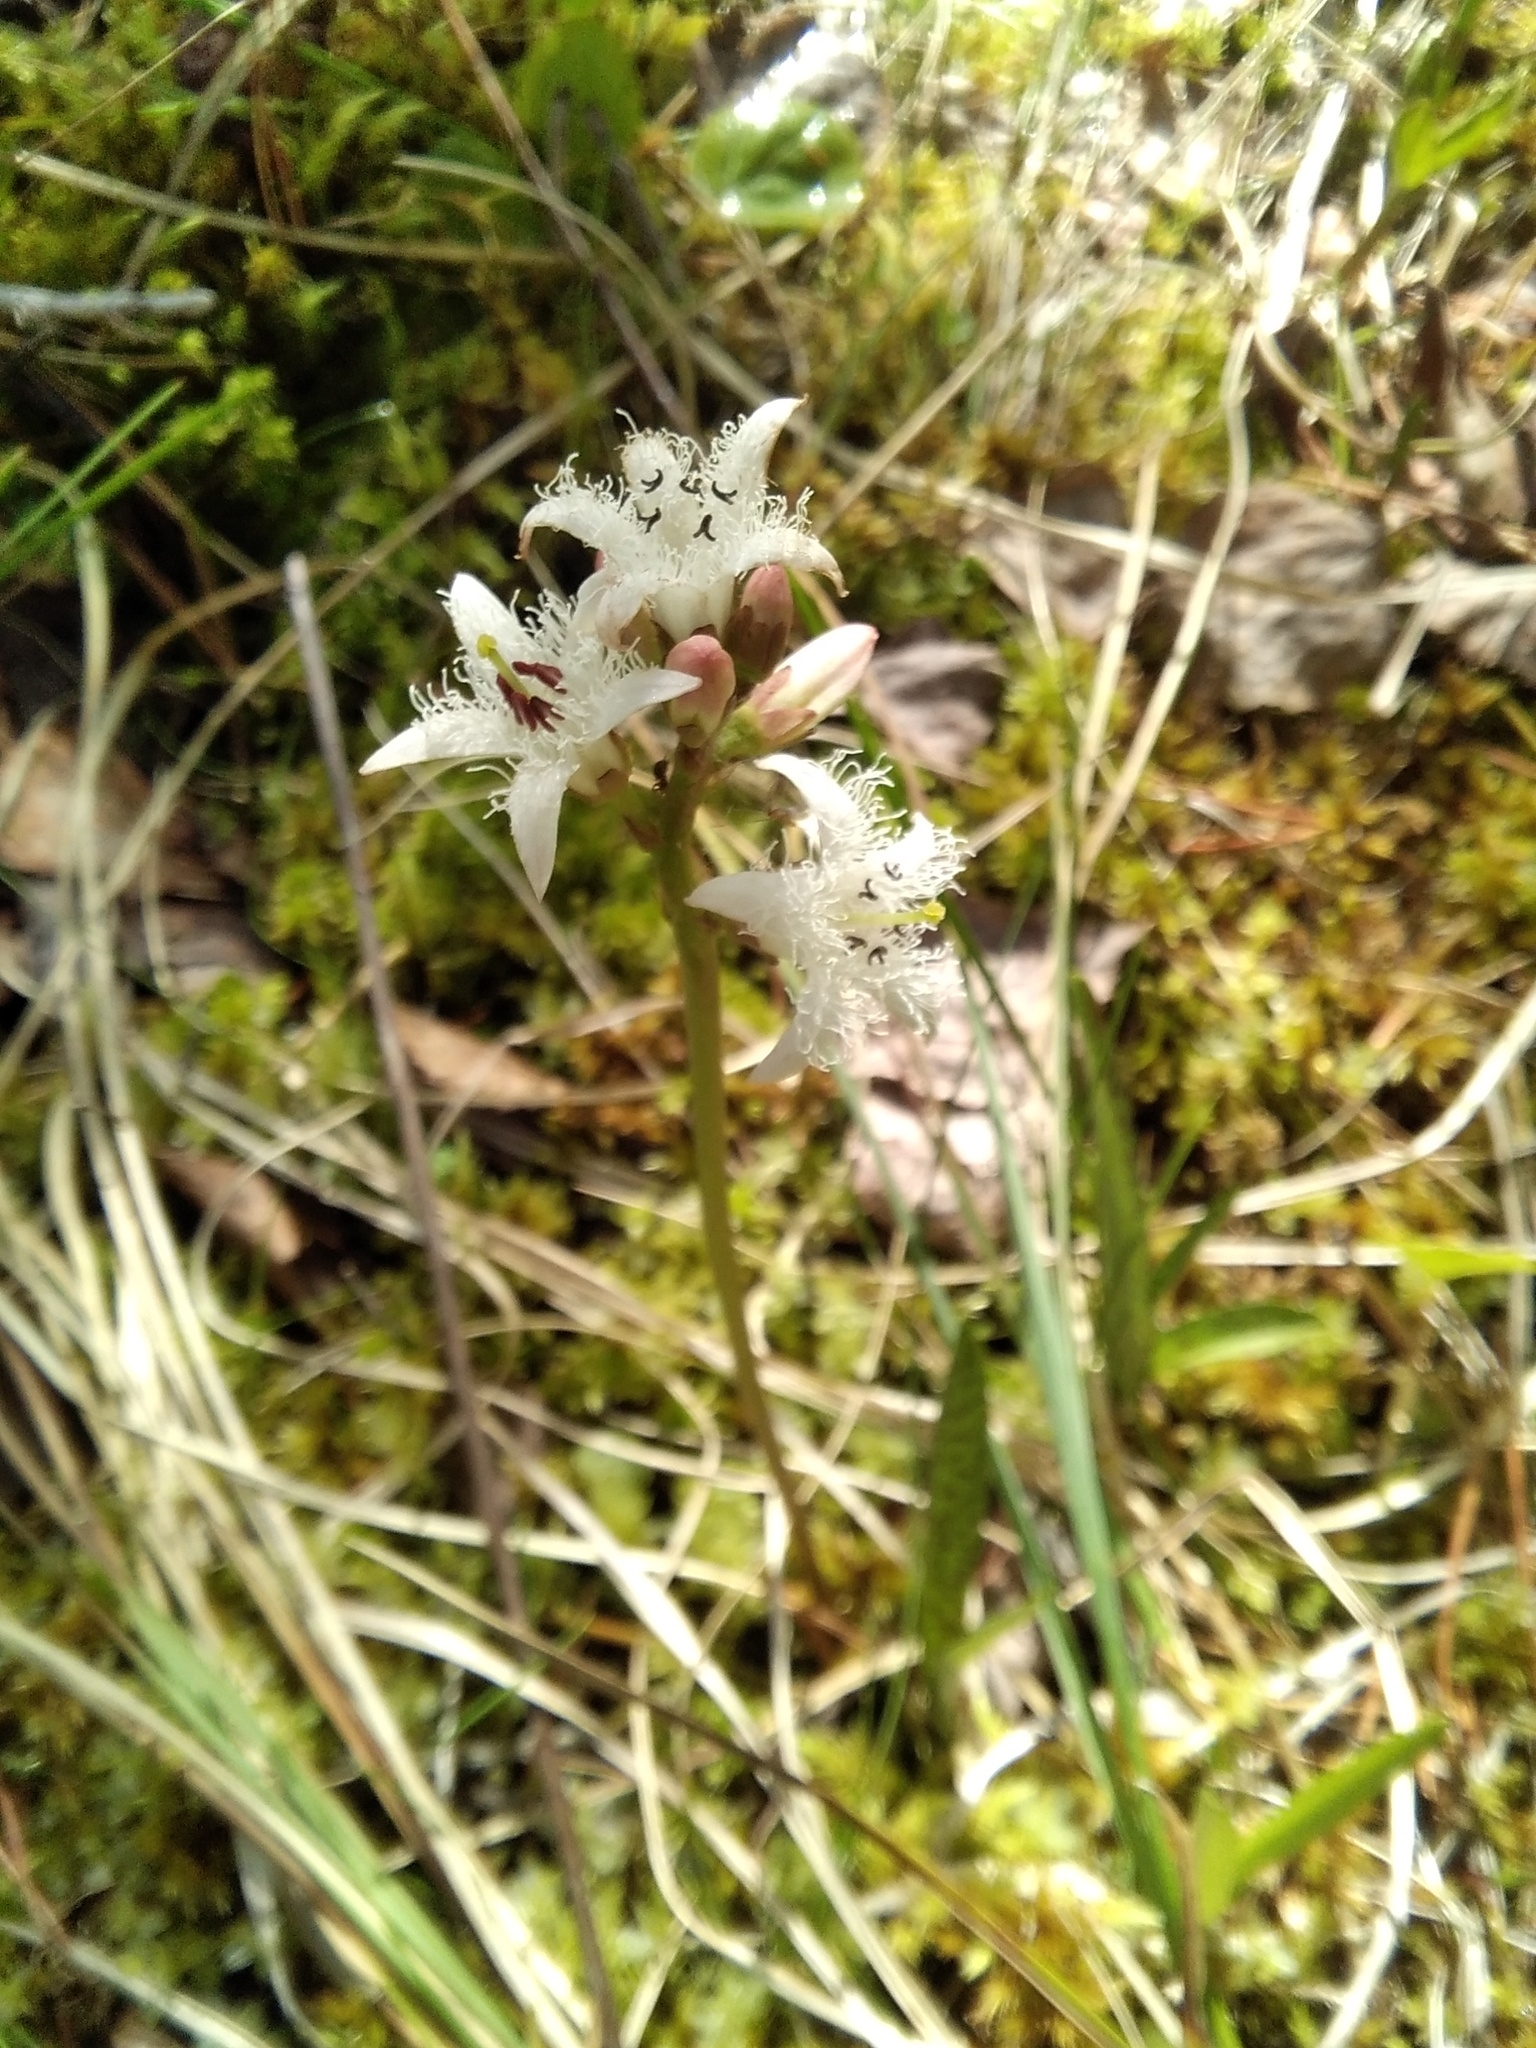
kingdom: Plantae
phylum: Tracheophyta
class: Magnoliopsida
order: Asterales
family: Menyanthaceae
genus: Menyanthes
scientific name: Menyanthes trifoliata
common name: Bogbean
